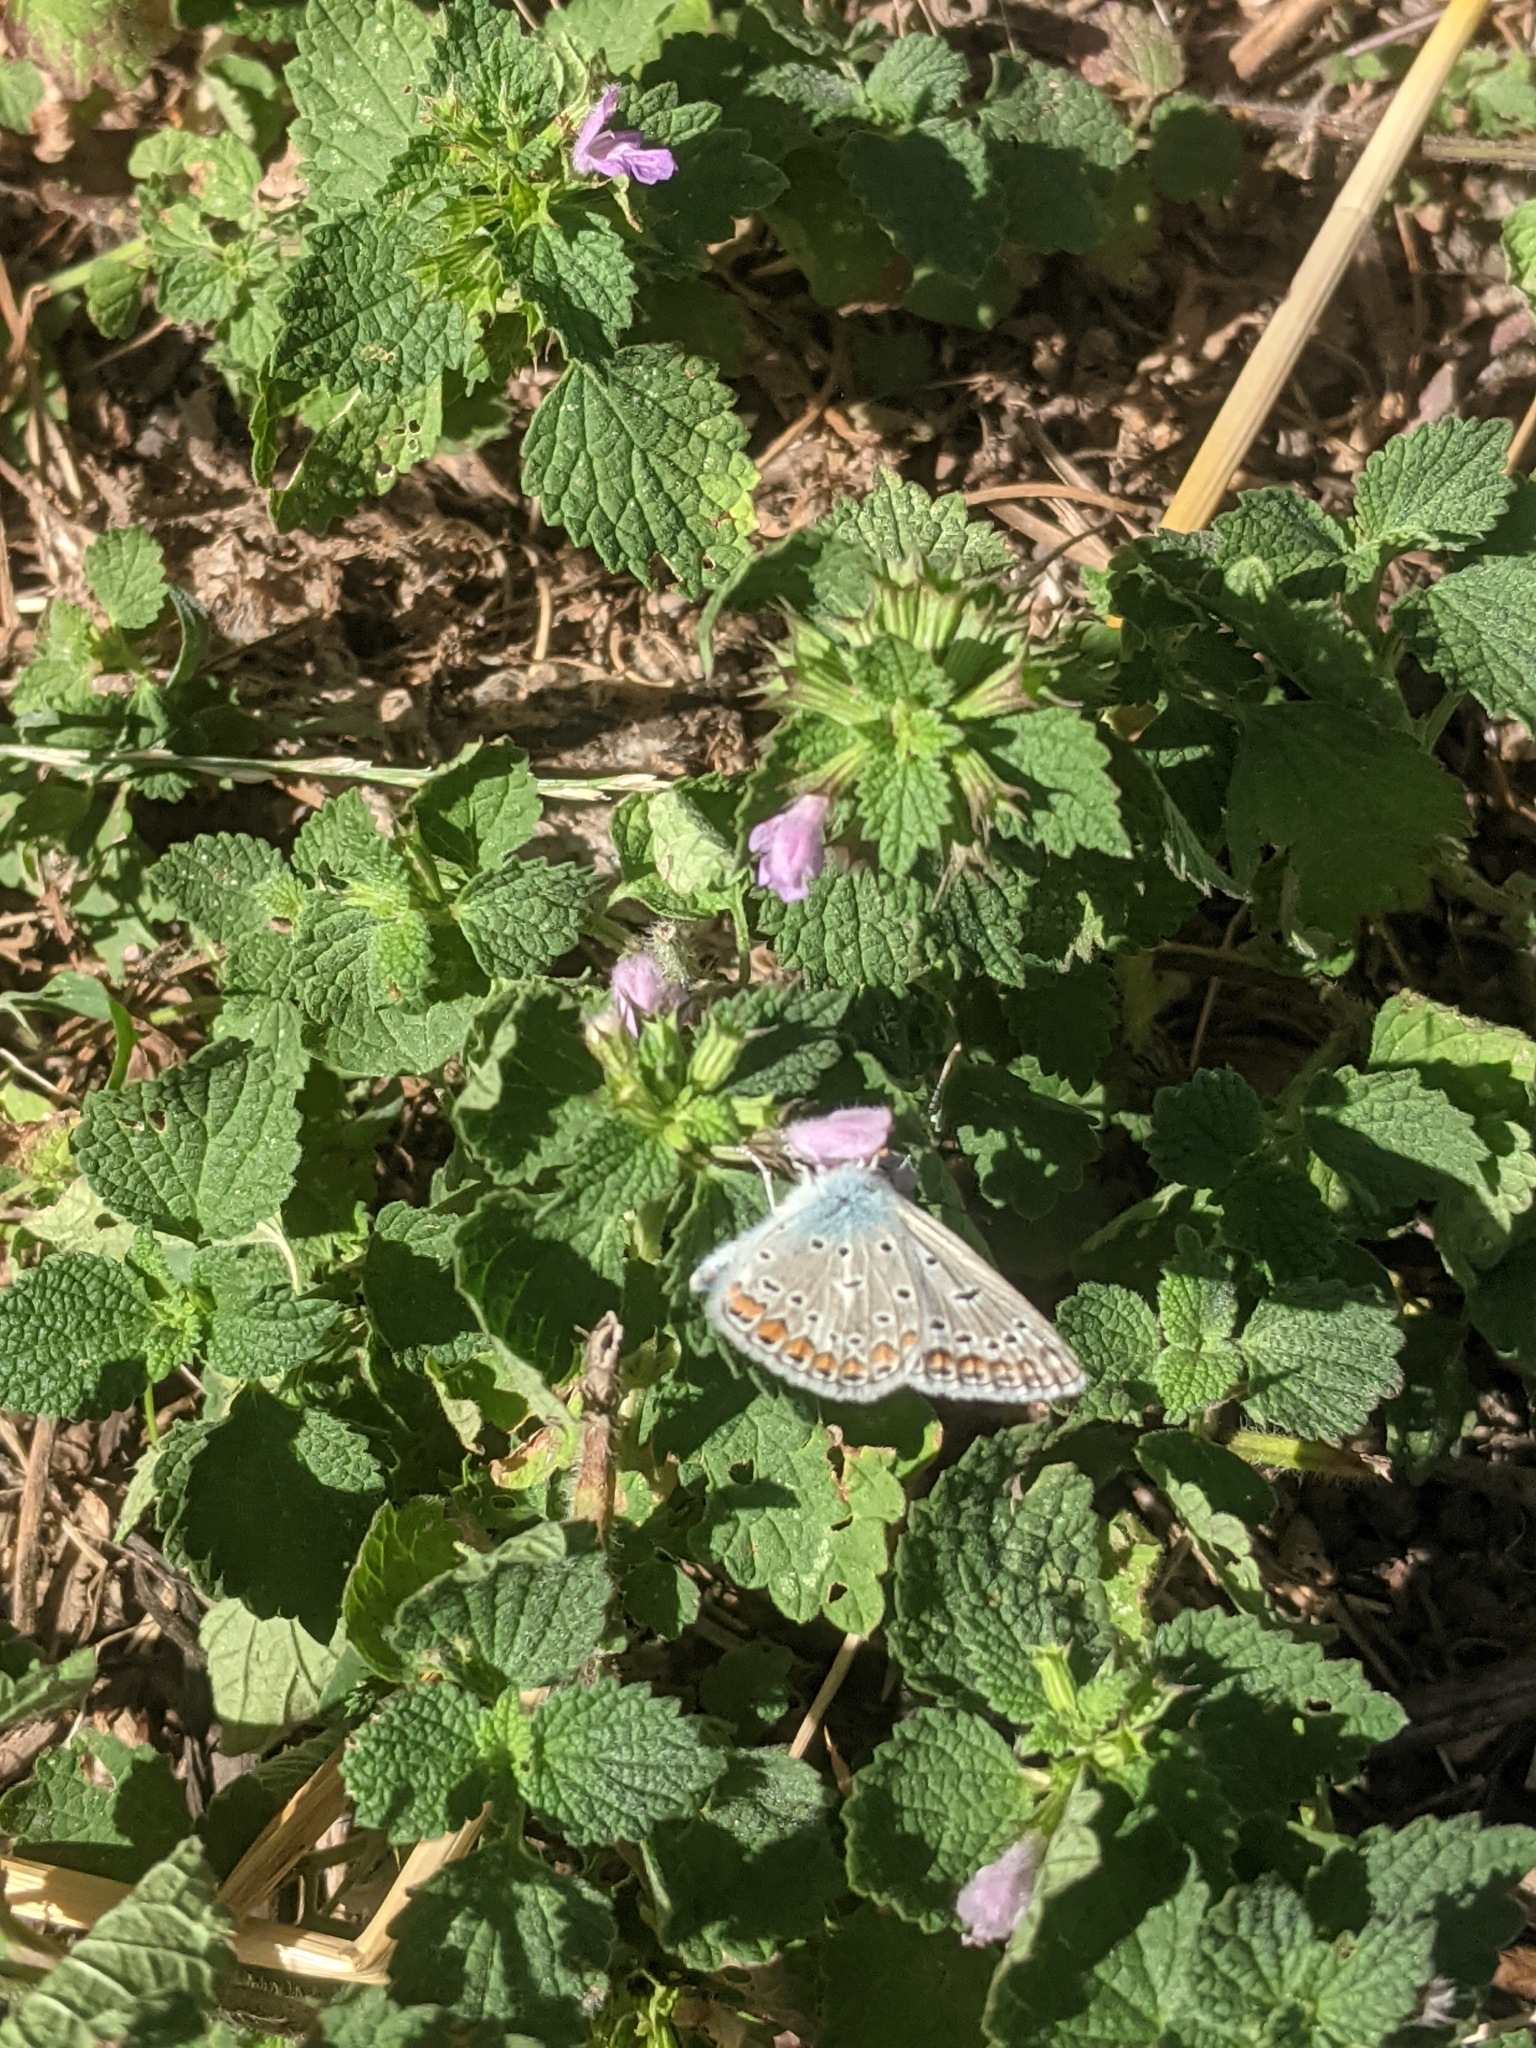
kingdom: Animalia
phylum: Arthropoda
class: Insecta
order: Lepidoptera
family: Lycaenidae
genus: Polyommatus
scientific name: Polyommatus icarus
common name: Common blue
